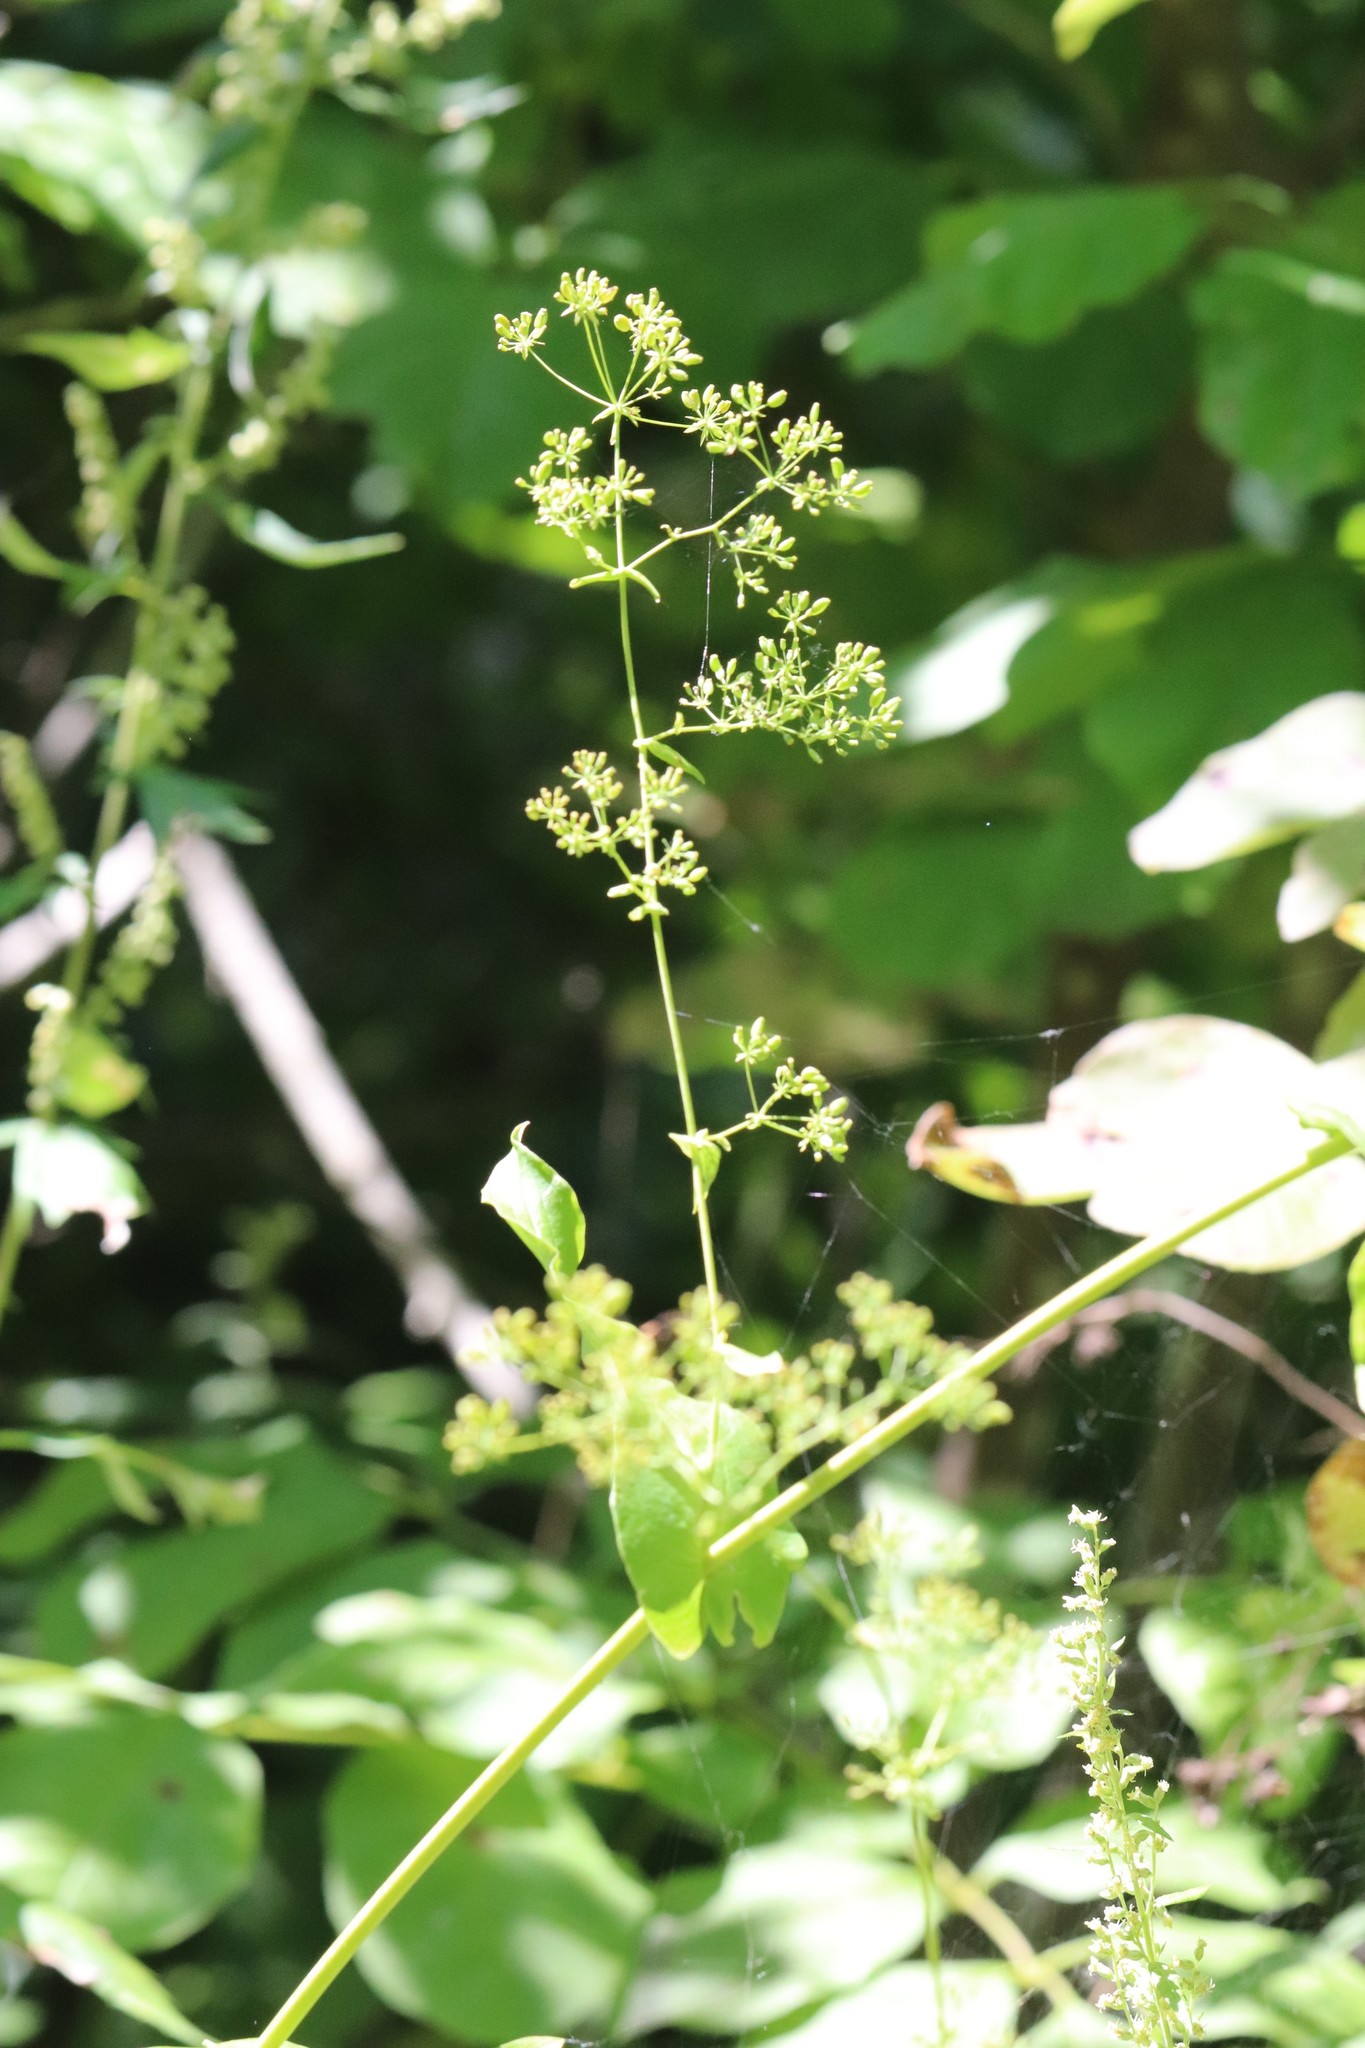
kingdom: Plantae
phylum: Tracheophyta
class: Magnoliopsida
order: Apiales
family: Apiaceae
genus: Bupleurum
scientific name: Bupleurum longiradiatum
